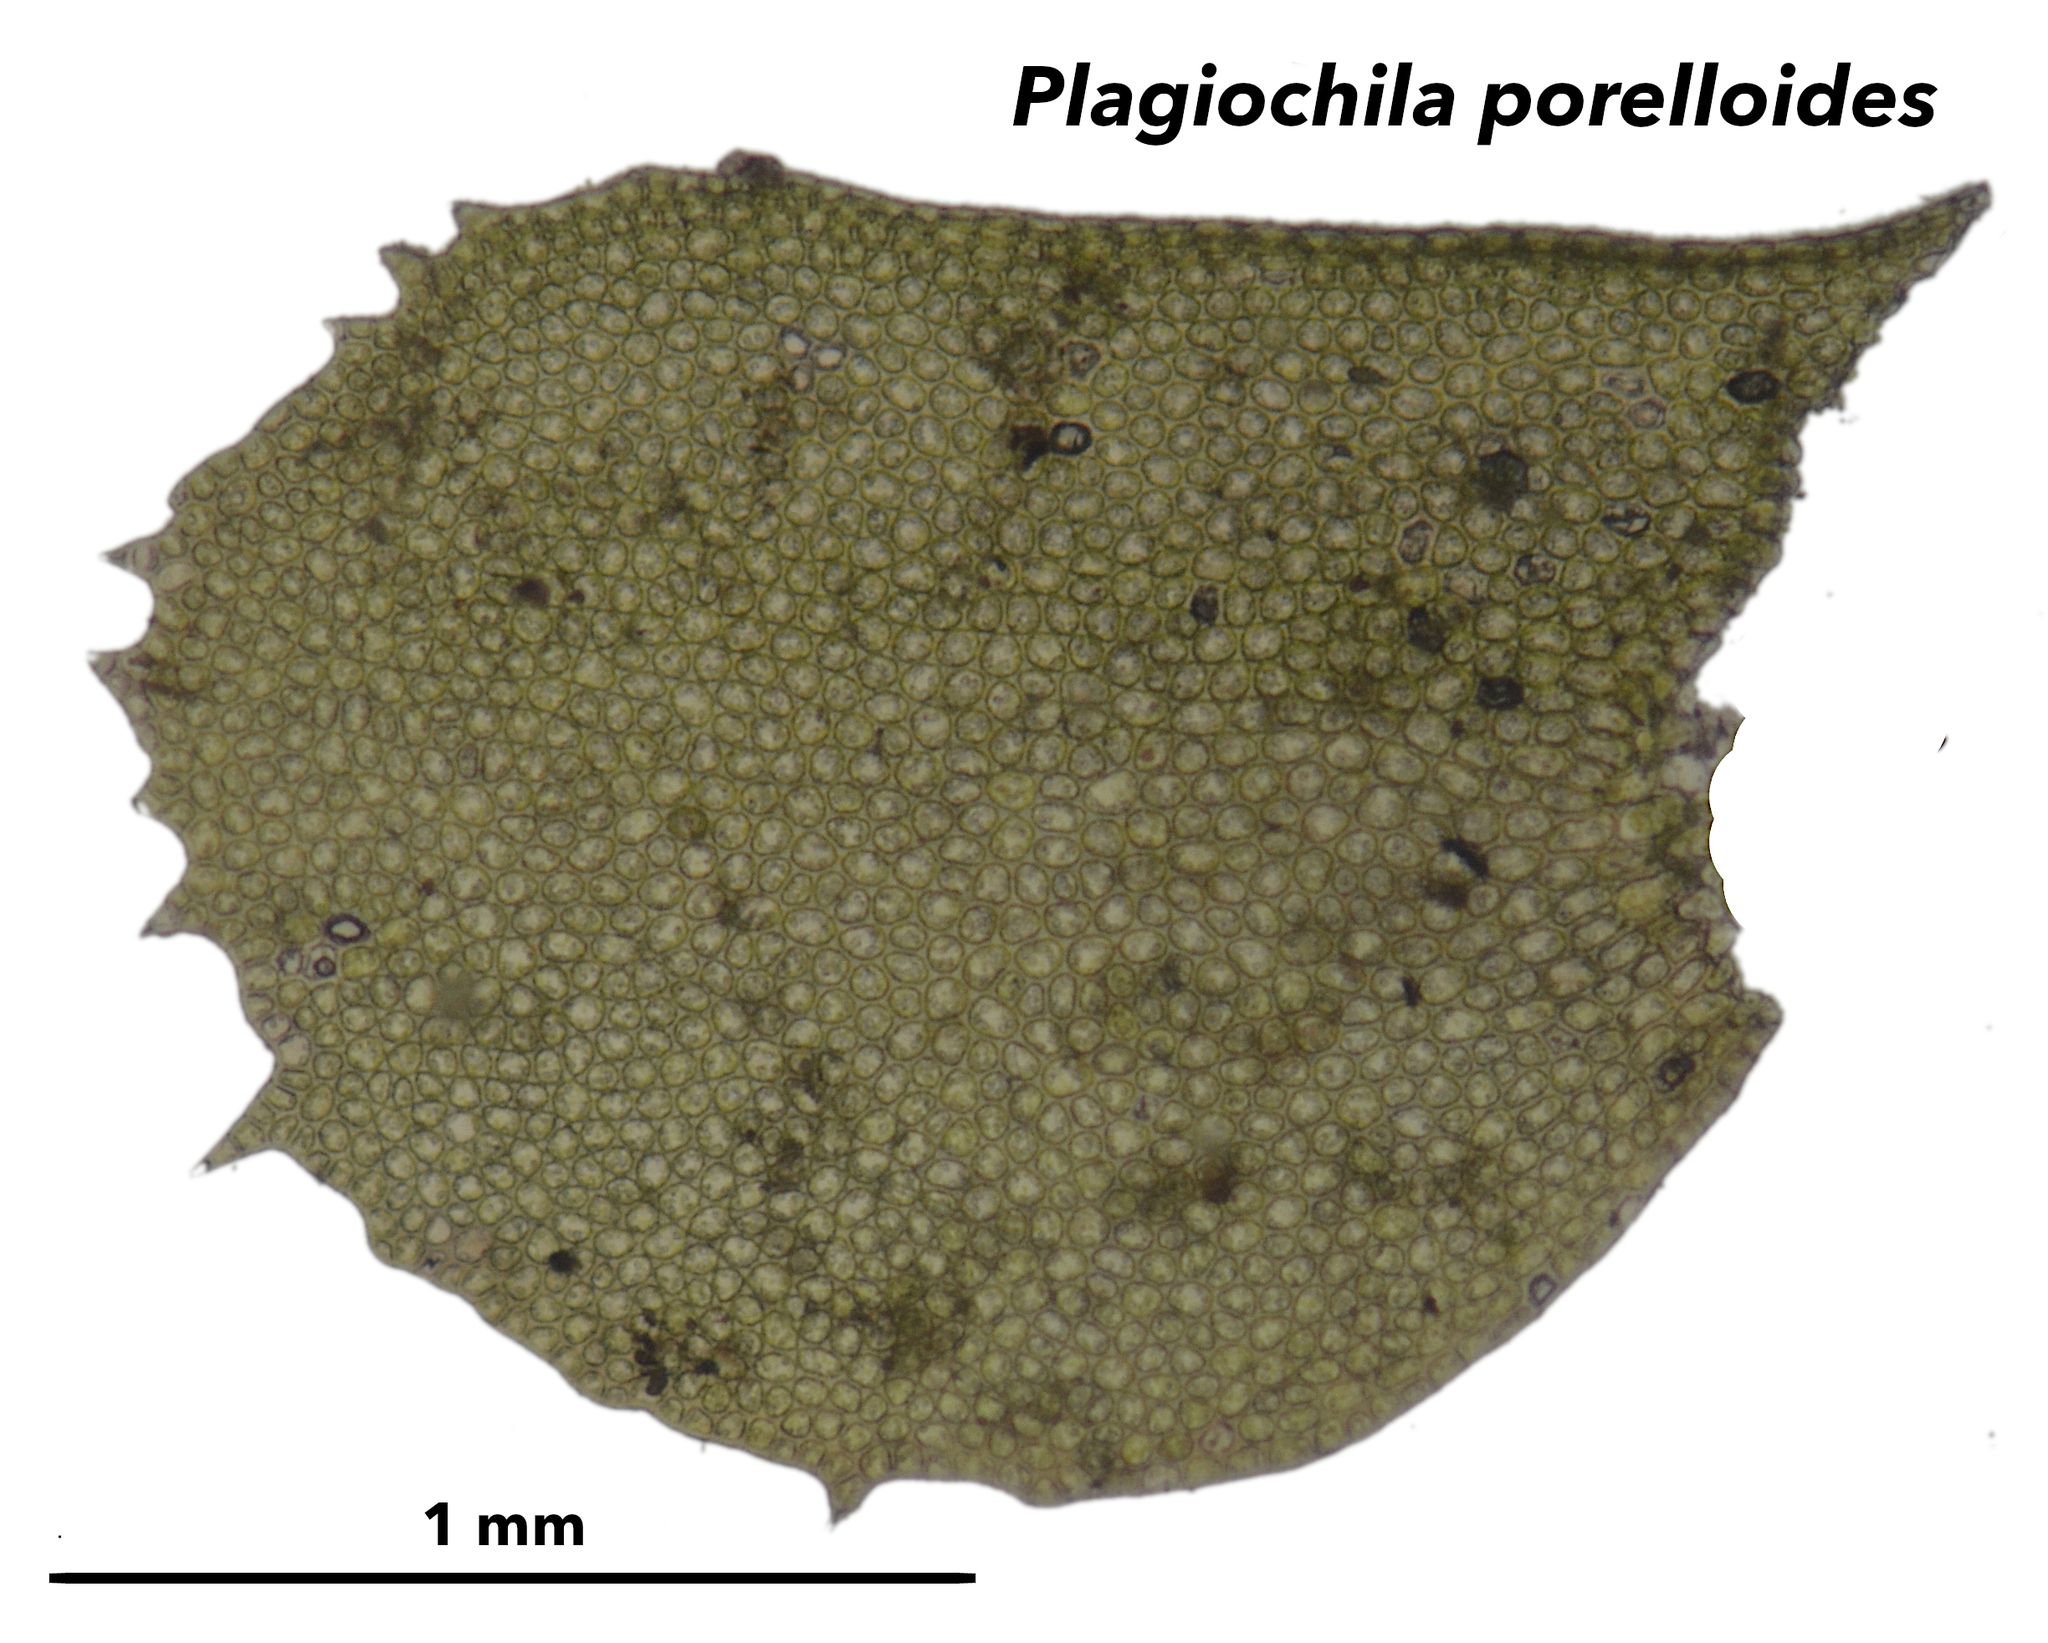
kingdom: Plantae
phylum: Marchantiophyta
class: Jungermanniopsida
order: Jungermanniales
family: Plagiochilaceae
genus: Plagiochila
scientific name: Plagiochila porelloides
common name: Lesser featherwort
